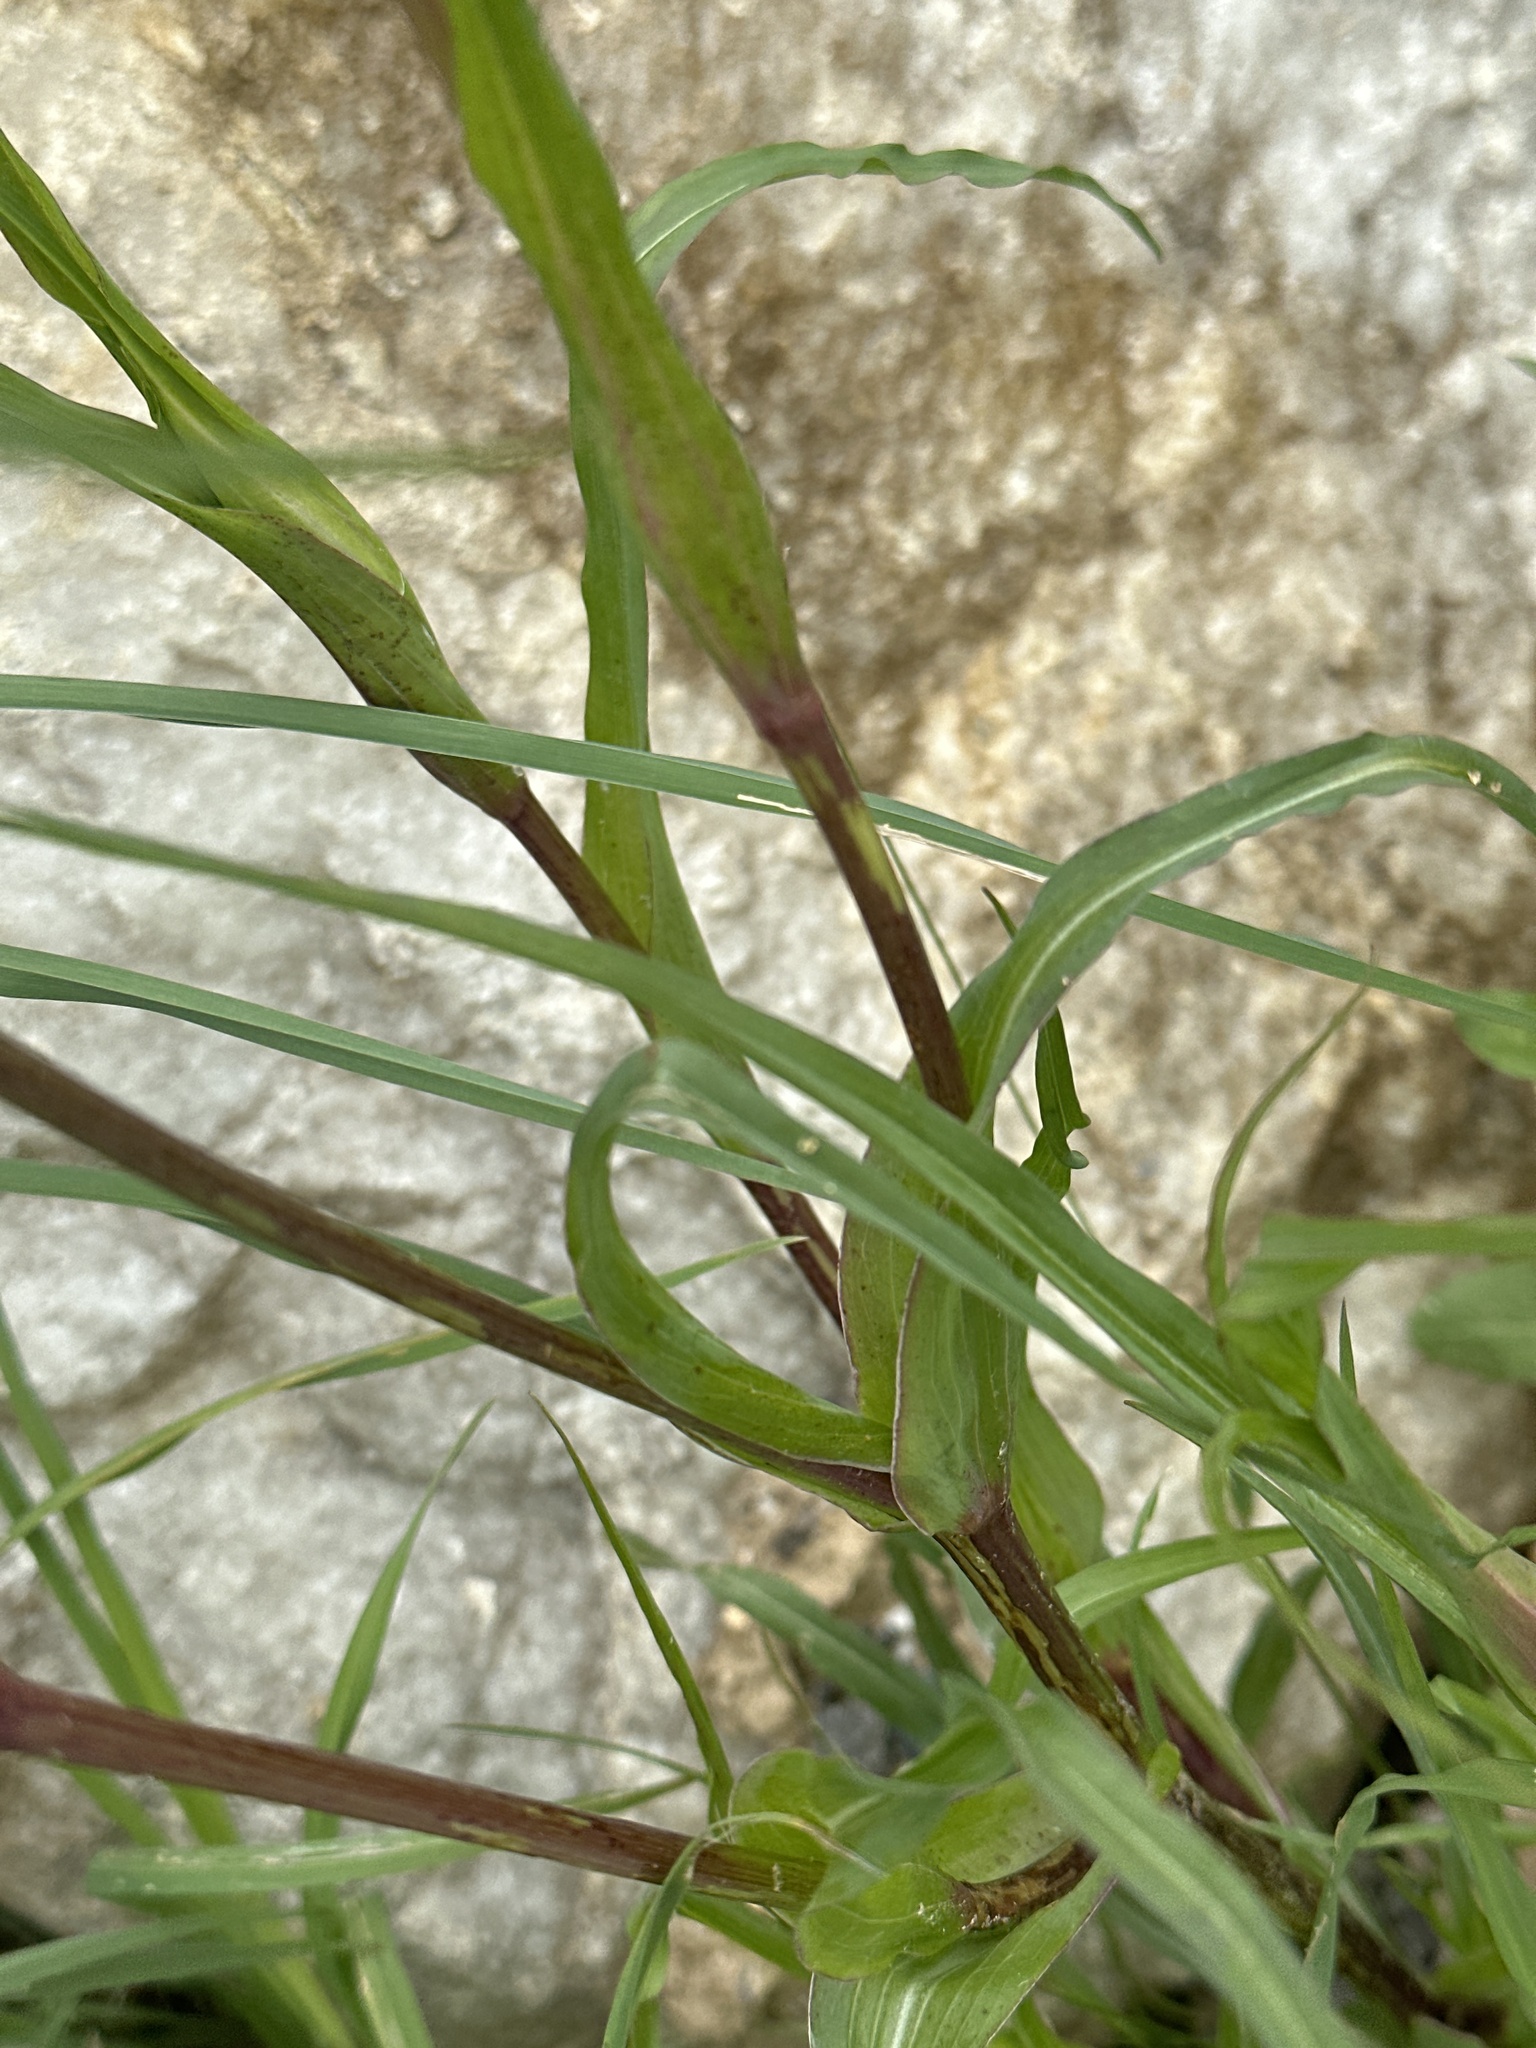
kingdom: Plantae
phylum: Tracheophyta
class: Magnoliopsida
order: Asterales
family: Asteraceae
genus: Tragopogon
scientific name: Tragopogon orientalis
